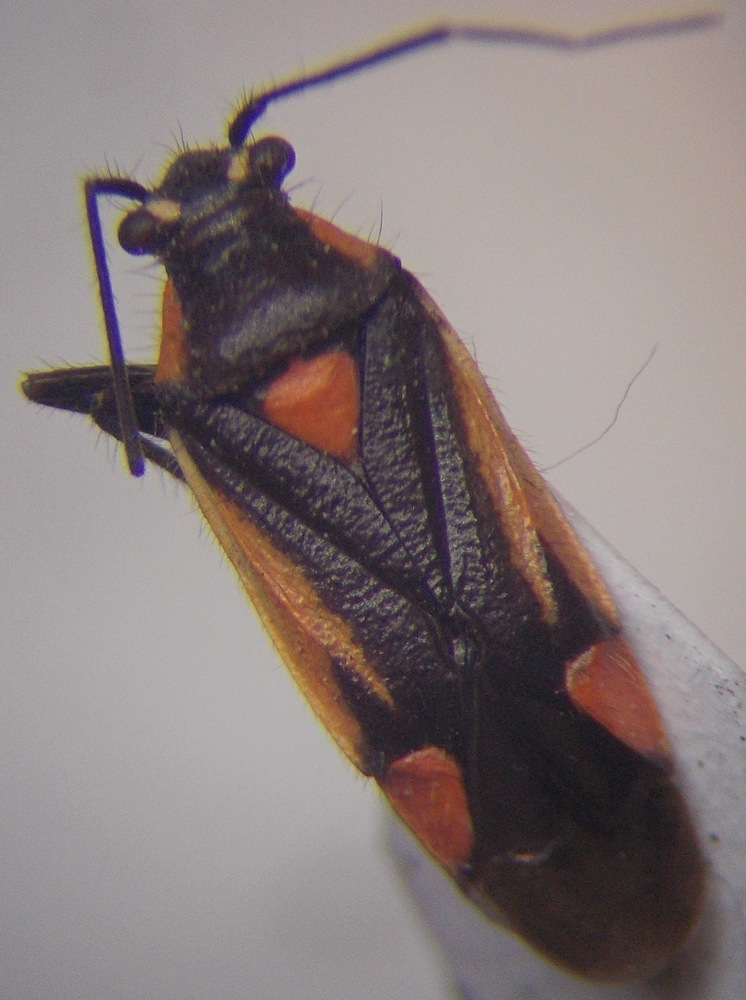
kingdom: Animalia
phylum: Arthropoda
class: Insecta
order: Hemiptera
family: Miridae
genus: Capsodes
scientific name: Capsodes gothicus
